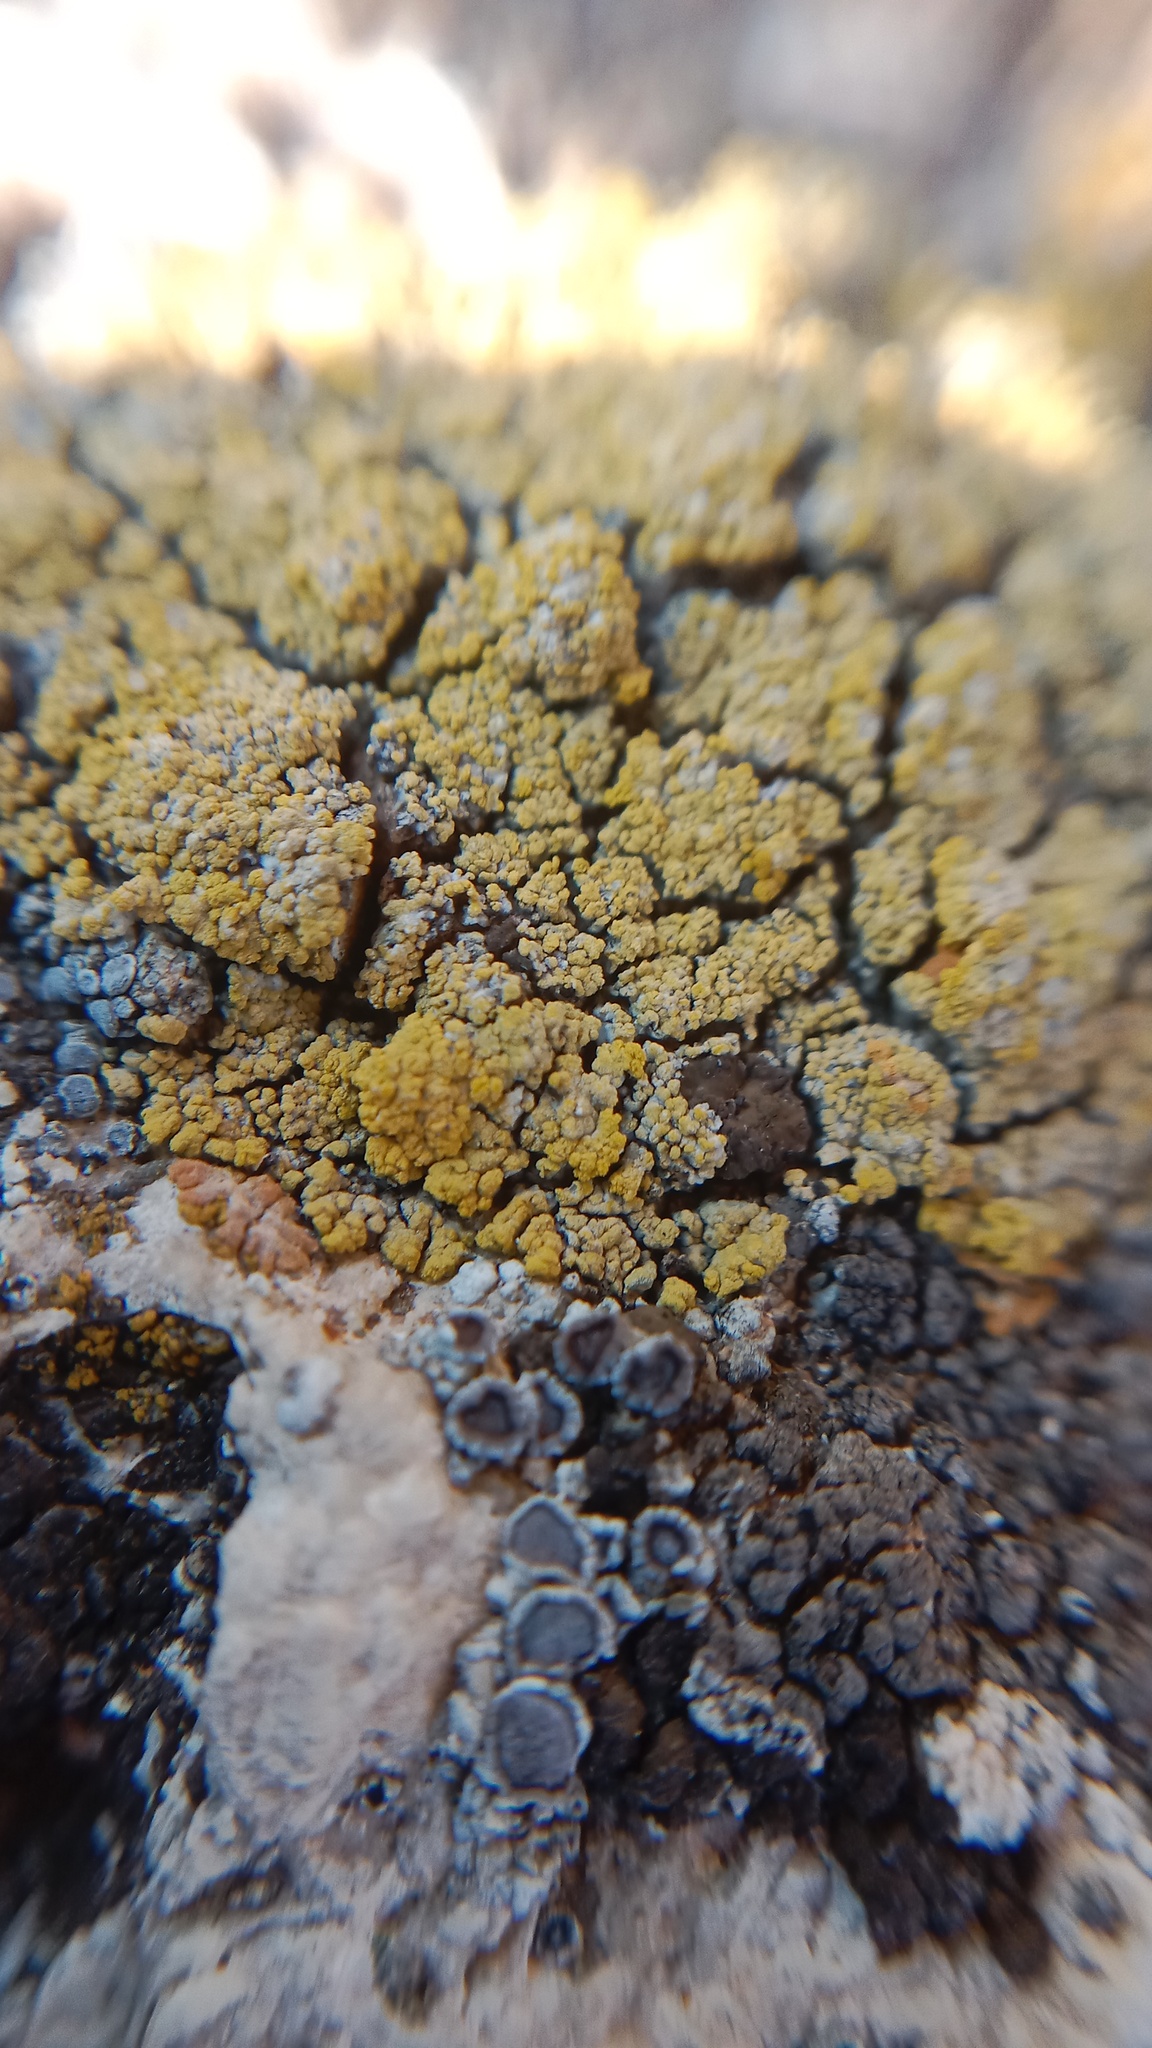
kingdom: Fungi
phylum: Ascomycota
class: Candelariomycetes
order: Candelariales
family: Candelariaceae
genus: Candelariella
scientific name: Candelariella medians
